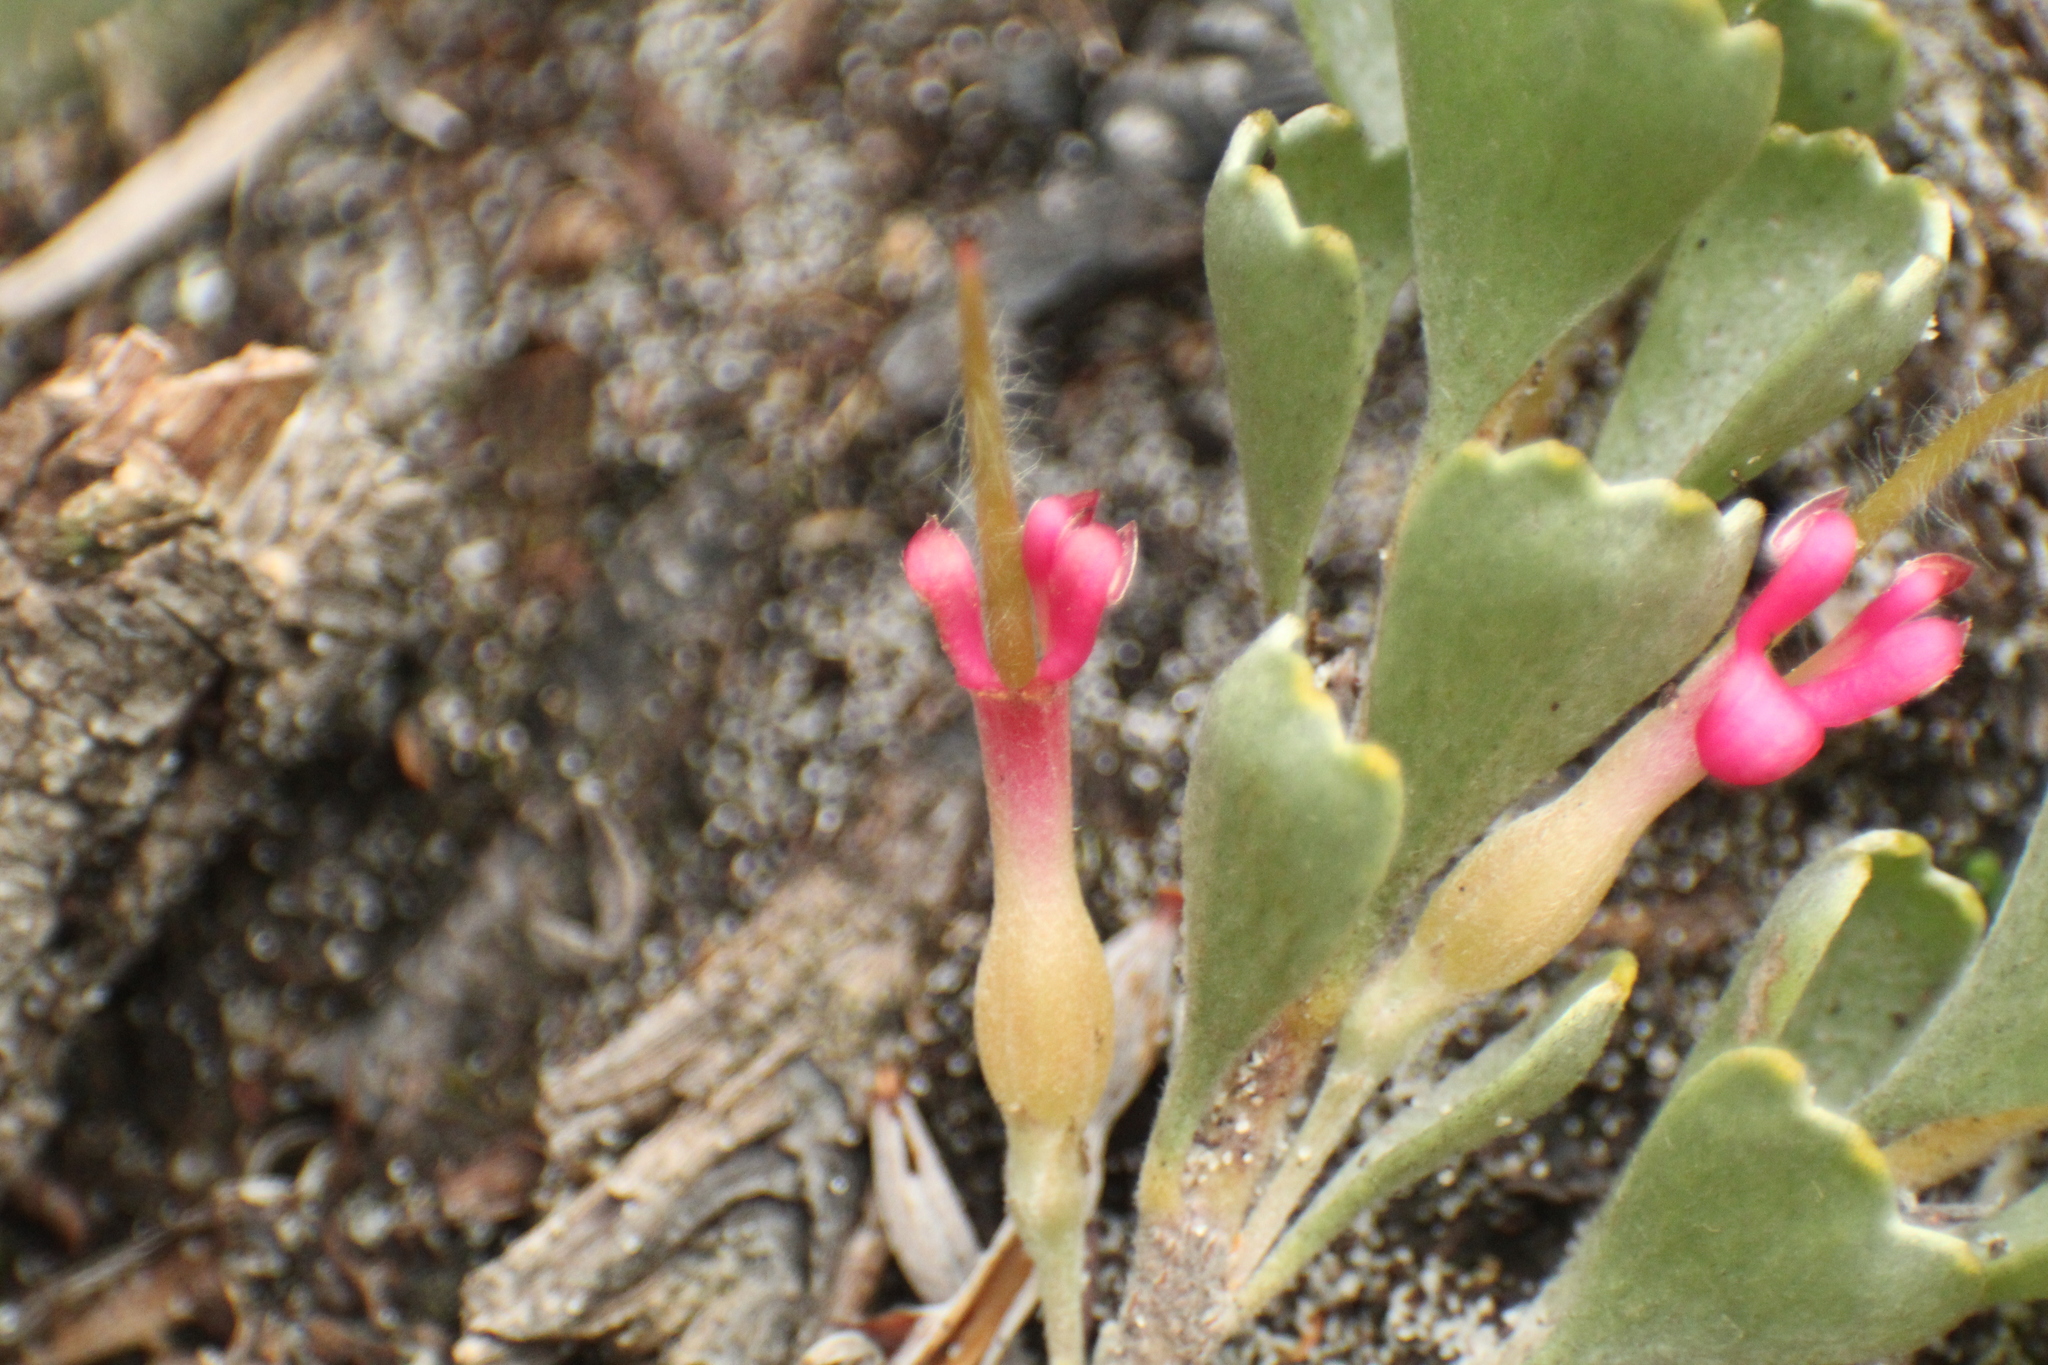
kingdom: Plantae
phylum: Tracheophyta
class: Magnoliopsida
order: Proteales
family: Proteaceae
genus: Adenanthos
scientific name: Adenanthos cuneatus
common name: Flamebush
